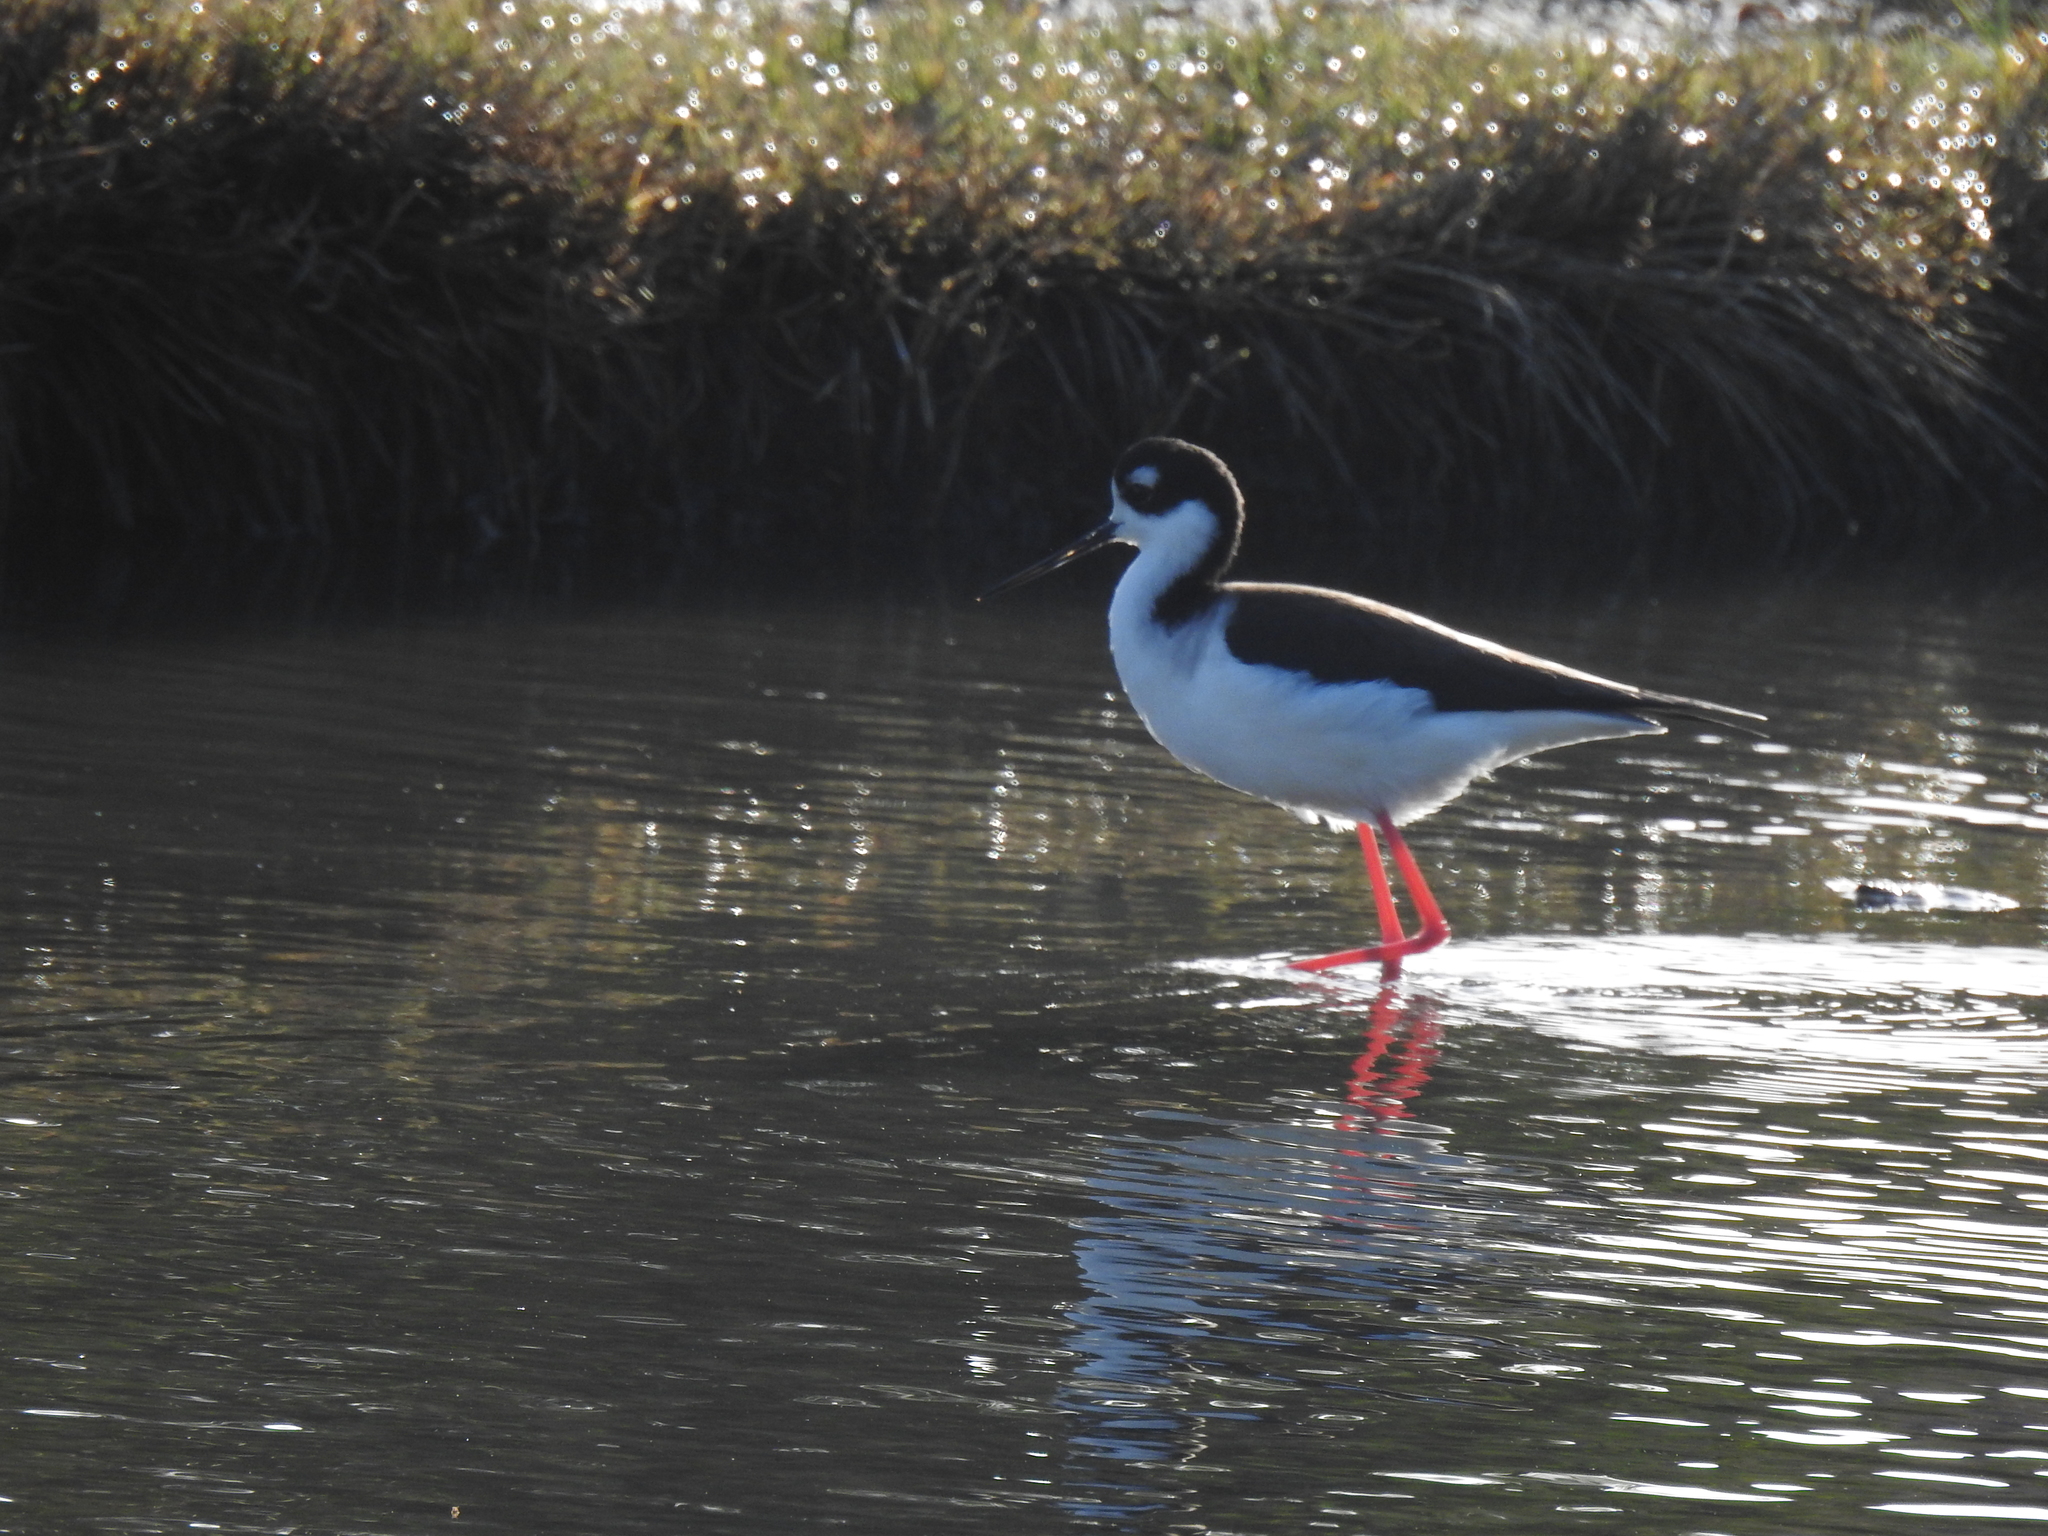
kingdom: Animalia
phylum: Chordata
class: Aves
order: Charadriiformes
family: Recurvirostridae
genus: Himantopus
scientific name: Himantopus mexicanus
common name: Black-necked stilt
